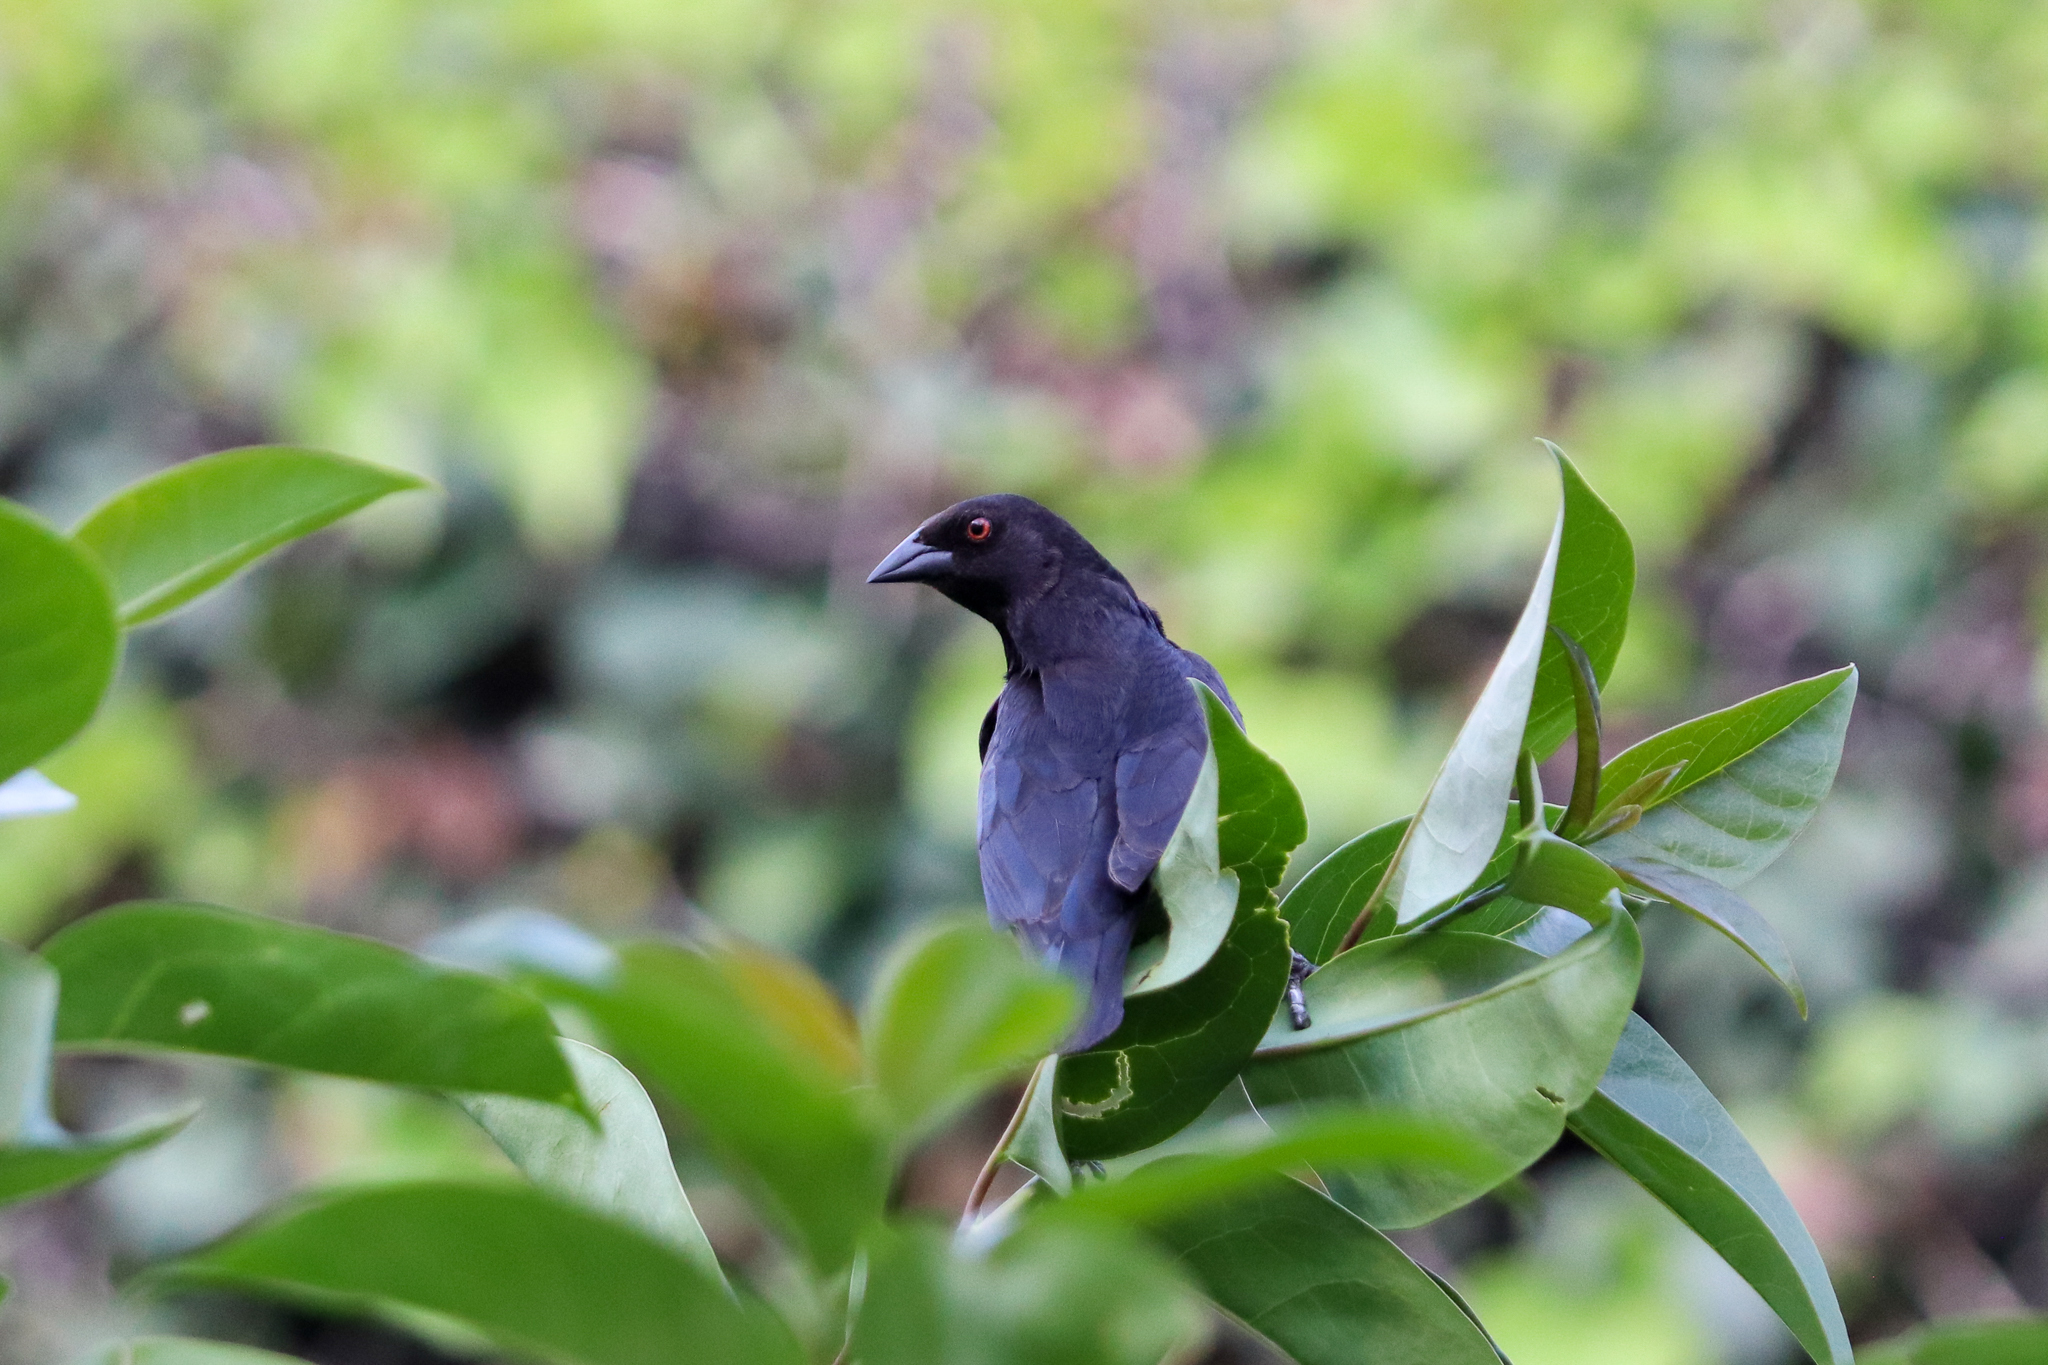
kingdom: Animalia
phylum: Chordata
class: Aves
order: Passeriformes
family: Icteridae
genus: Molothrus
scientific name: Molothrus aeneus
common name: Bronzed cowbird
